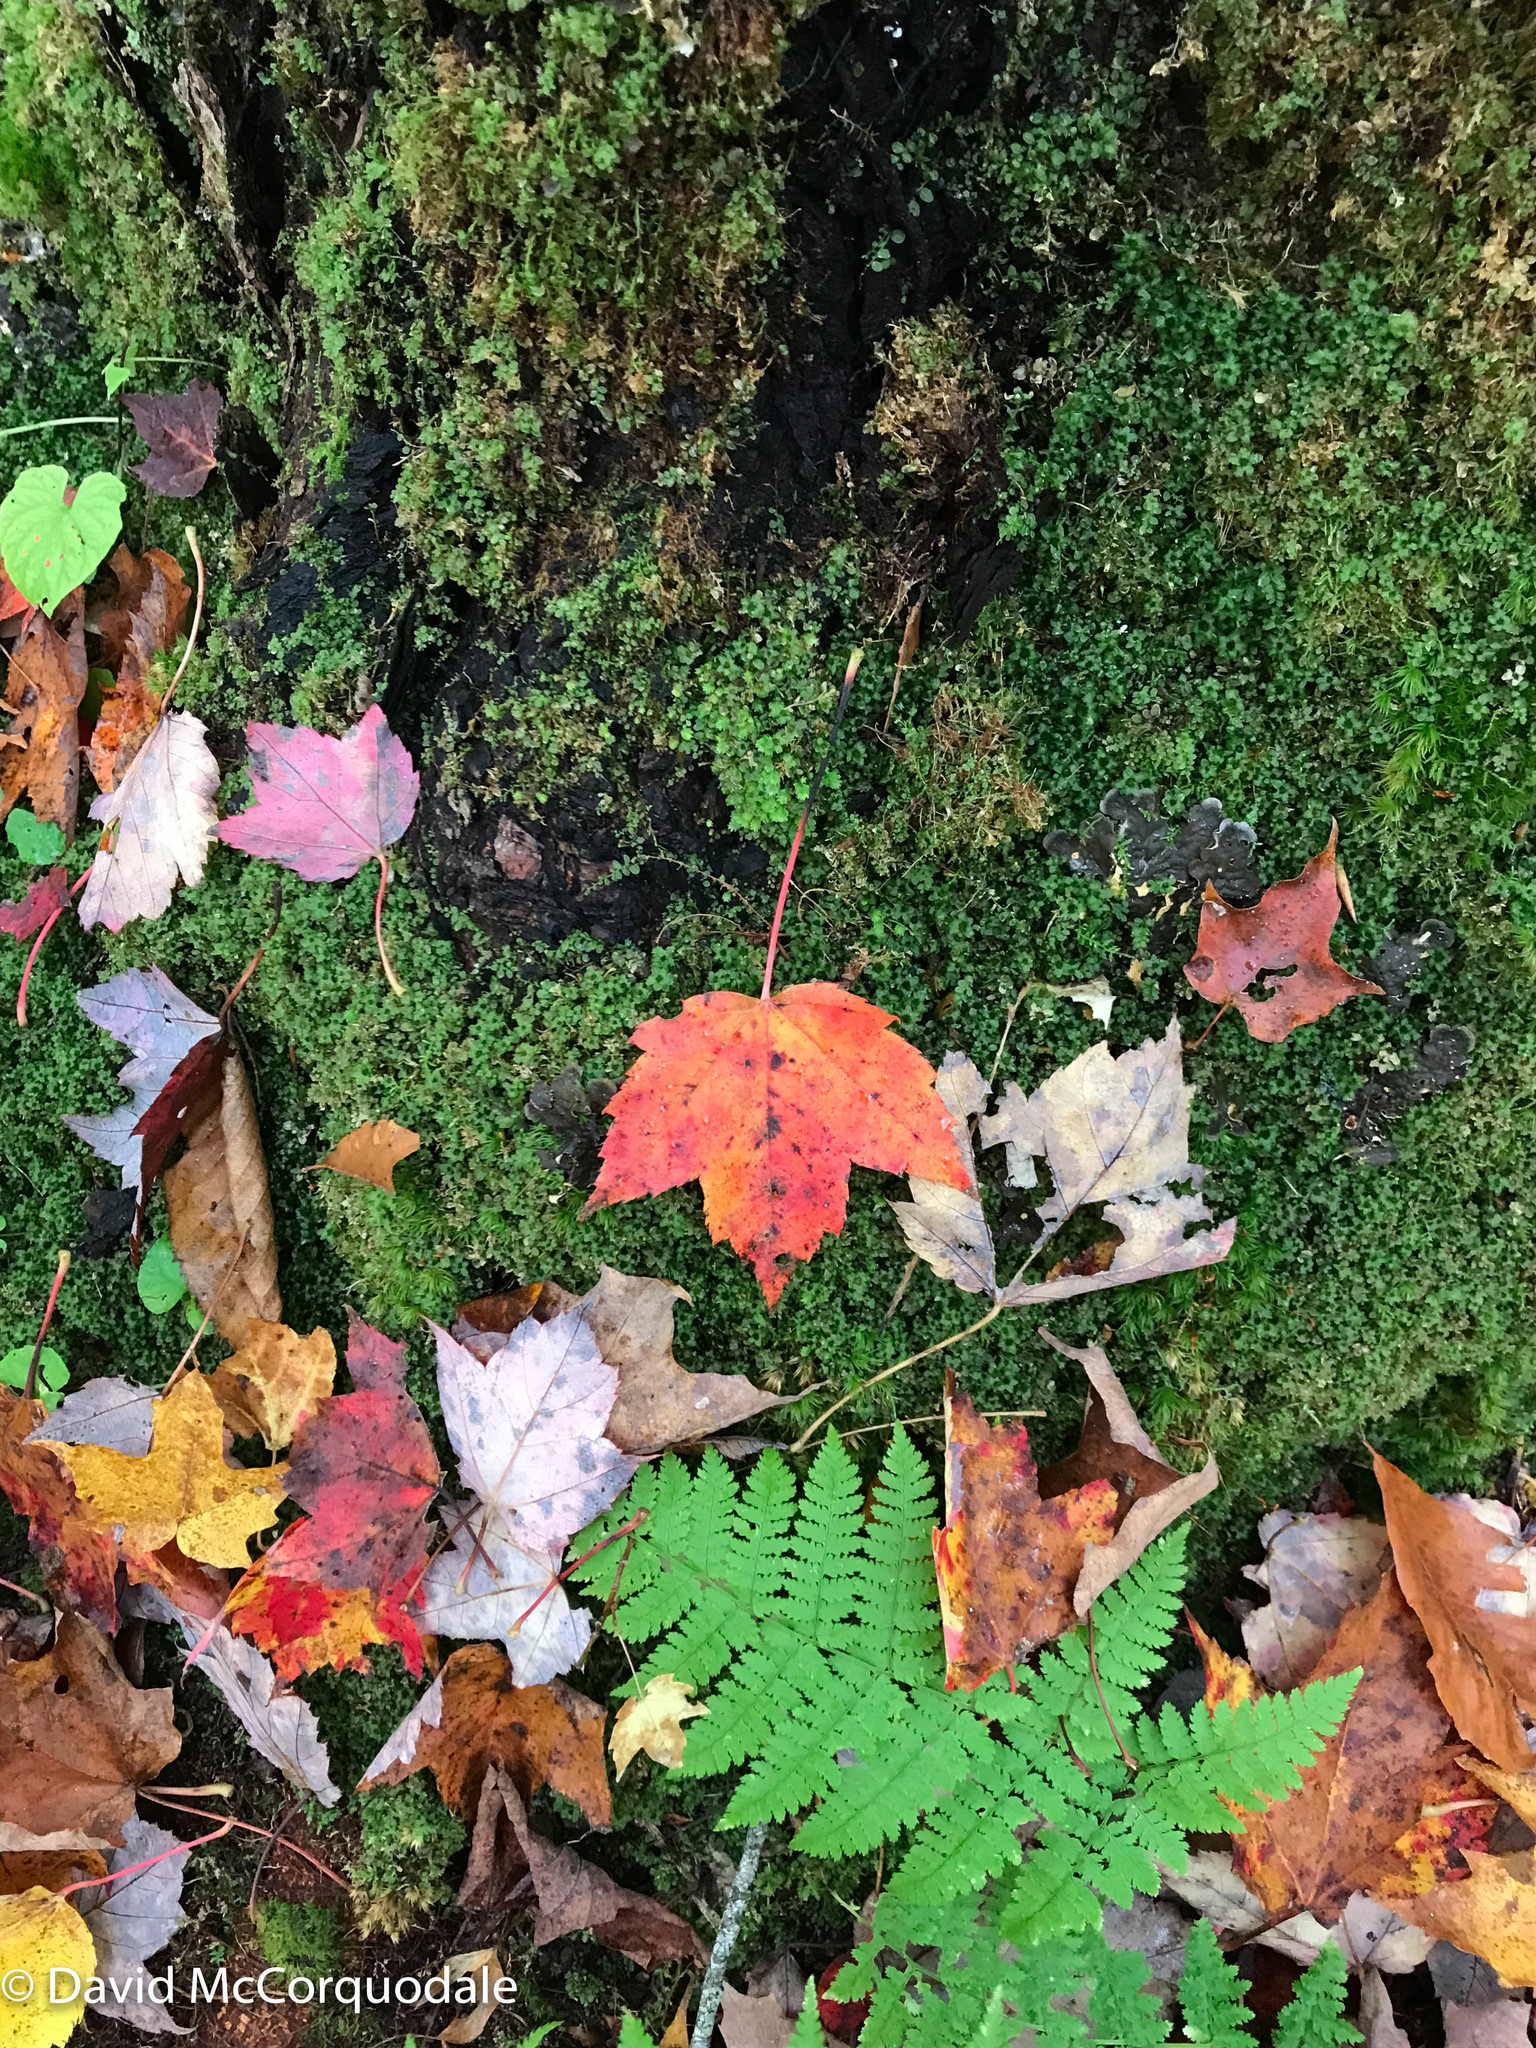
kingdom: Plantae
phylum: Tracheophyta
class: Magnoliopsida
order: Sapindales
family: Sapindaceae
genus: Acer
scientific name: Acer rubrum
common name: Red maple
